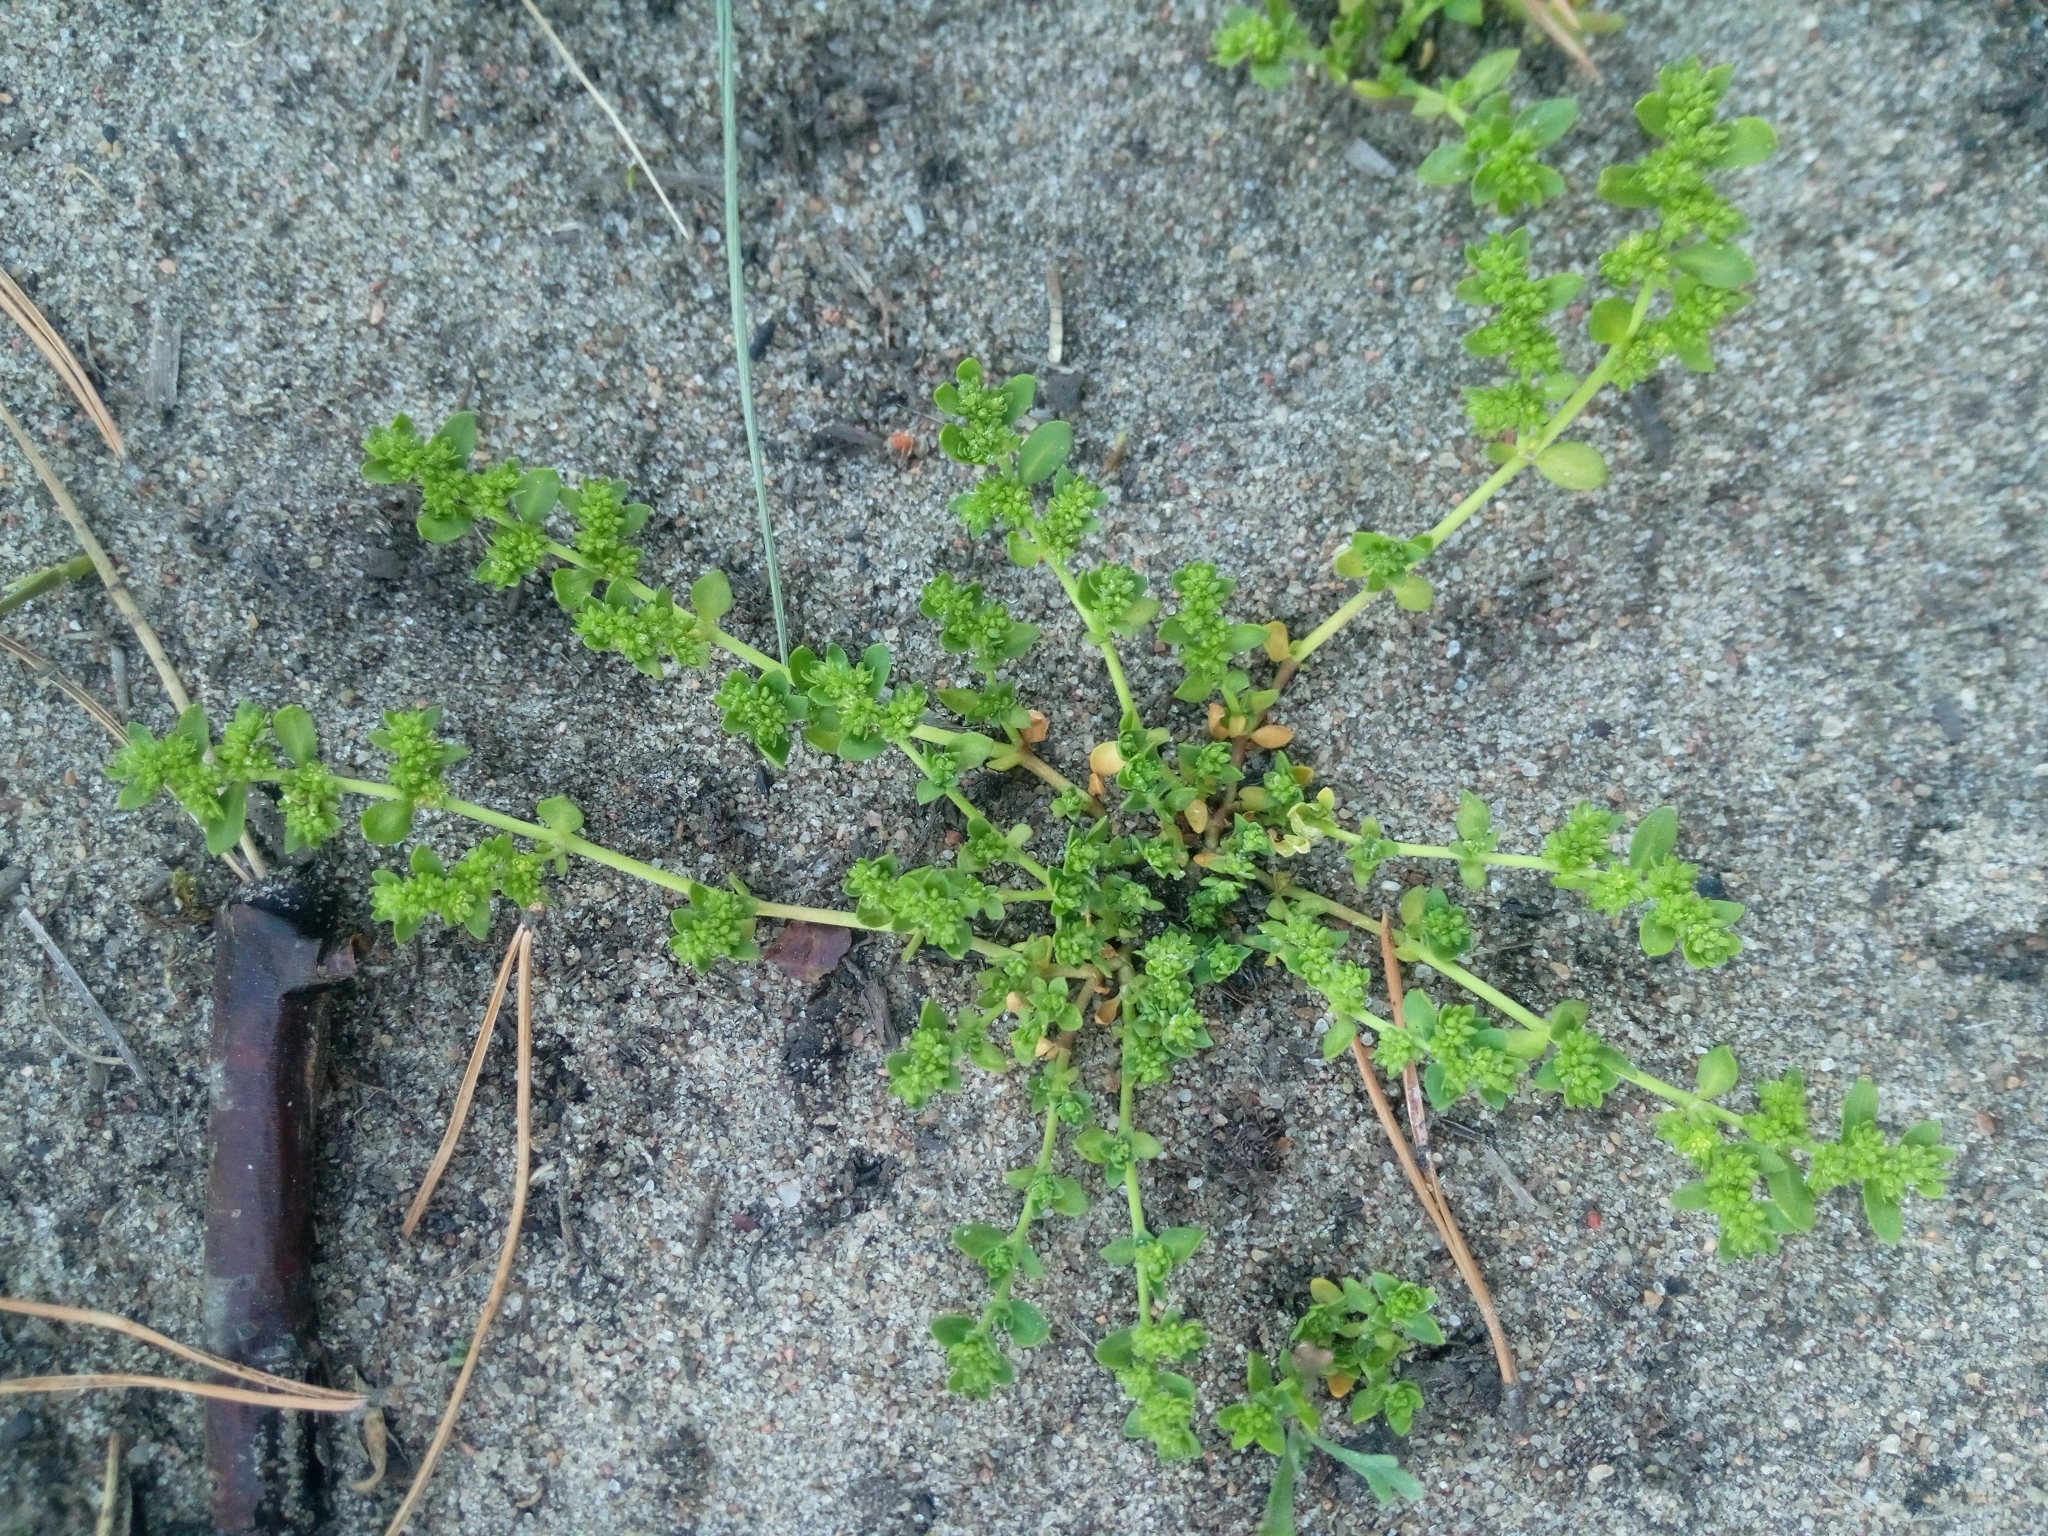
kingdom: Plantae
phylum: Tracheophyta
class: Magnoliopsida
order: Caryophyllales
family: Caryophyllaceae
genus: Herniaria
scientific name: Herniaria glabra
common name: Smooth rupturewort
